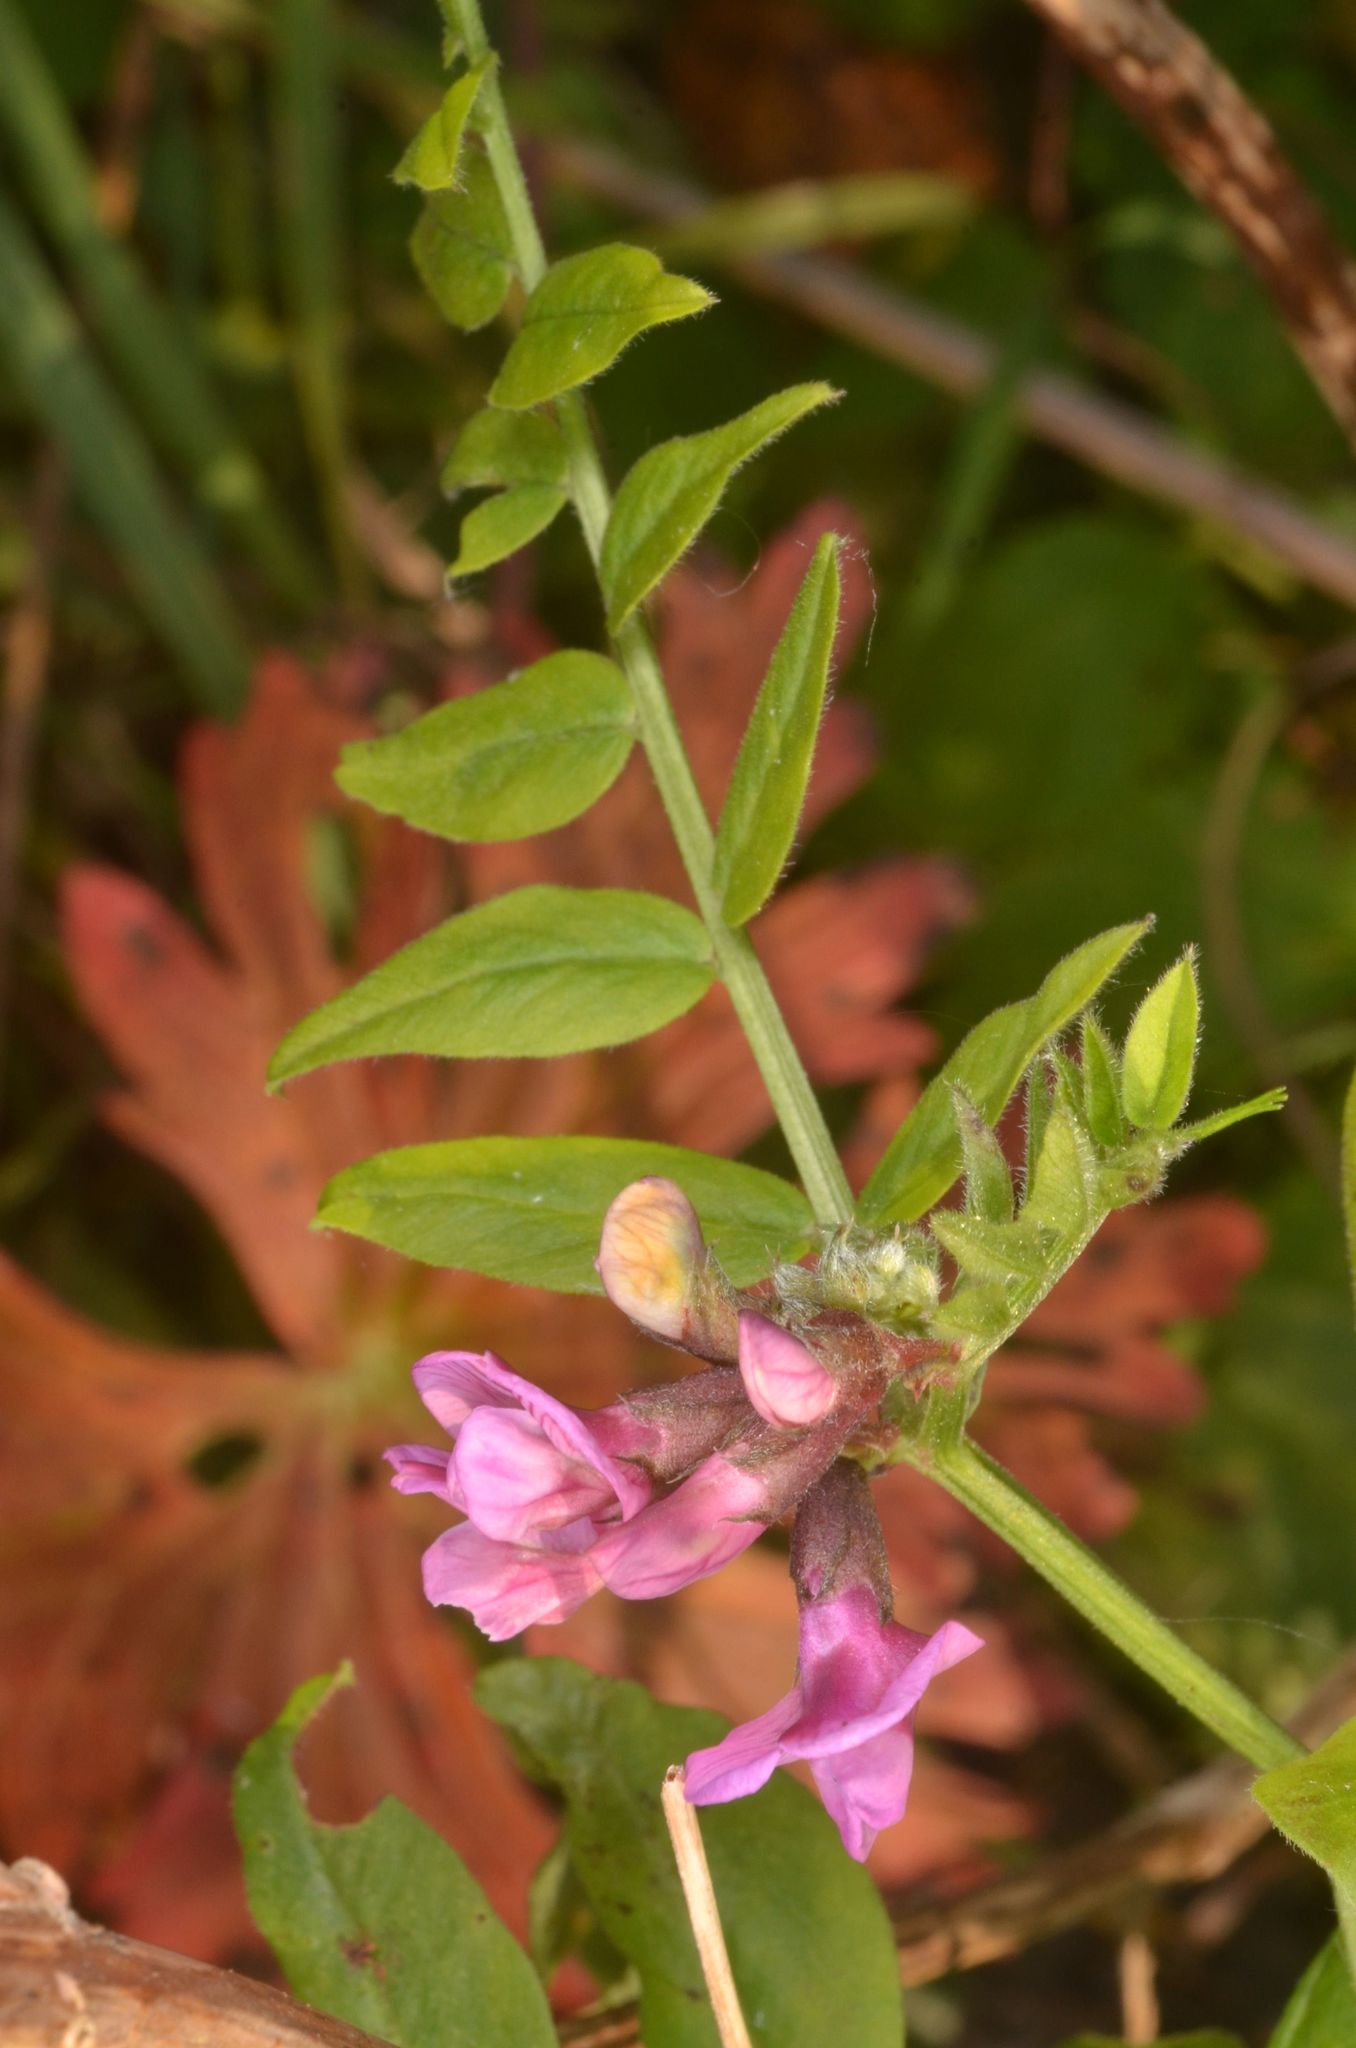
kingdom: Plantae
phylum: Tracheophyta
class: Magnoliopsida
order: Fabales
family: Fabaceae
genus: Vicia
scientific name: Vicia sepium
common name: Bush vetch
